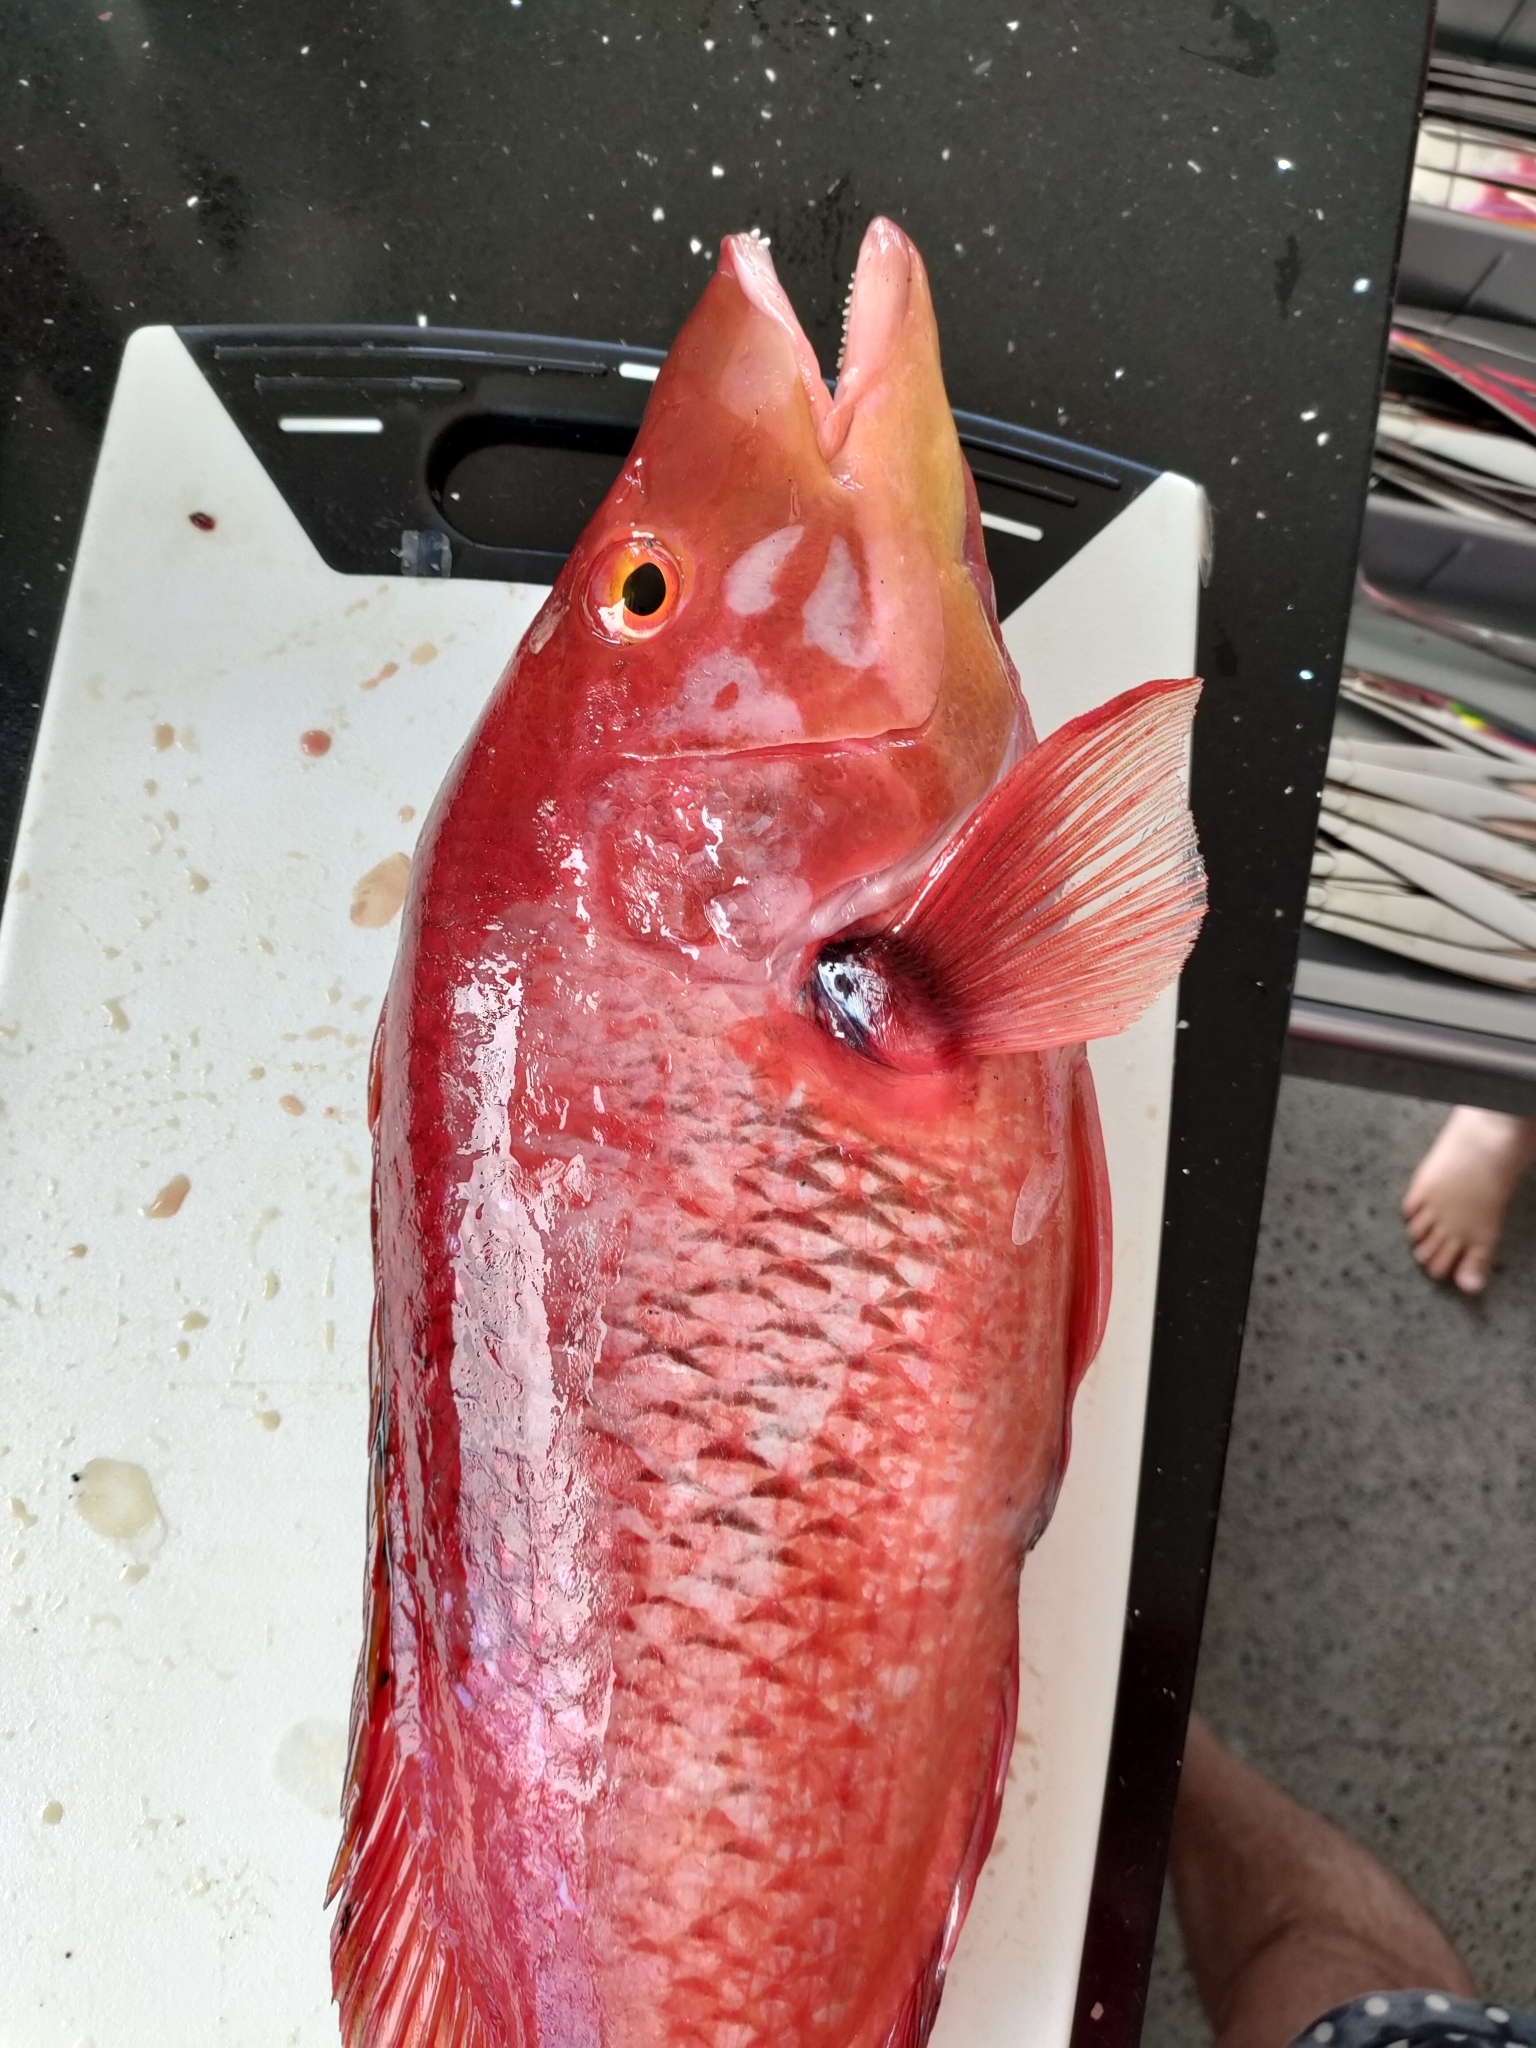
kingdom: Animalia
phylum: Chordata
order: Perciformes
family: Labridae
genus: Bodianus
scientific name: Bodianus unimaculatus
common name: Pigfish
